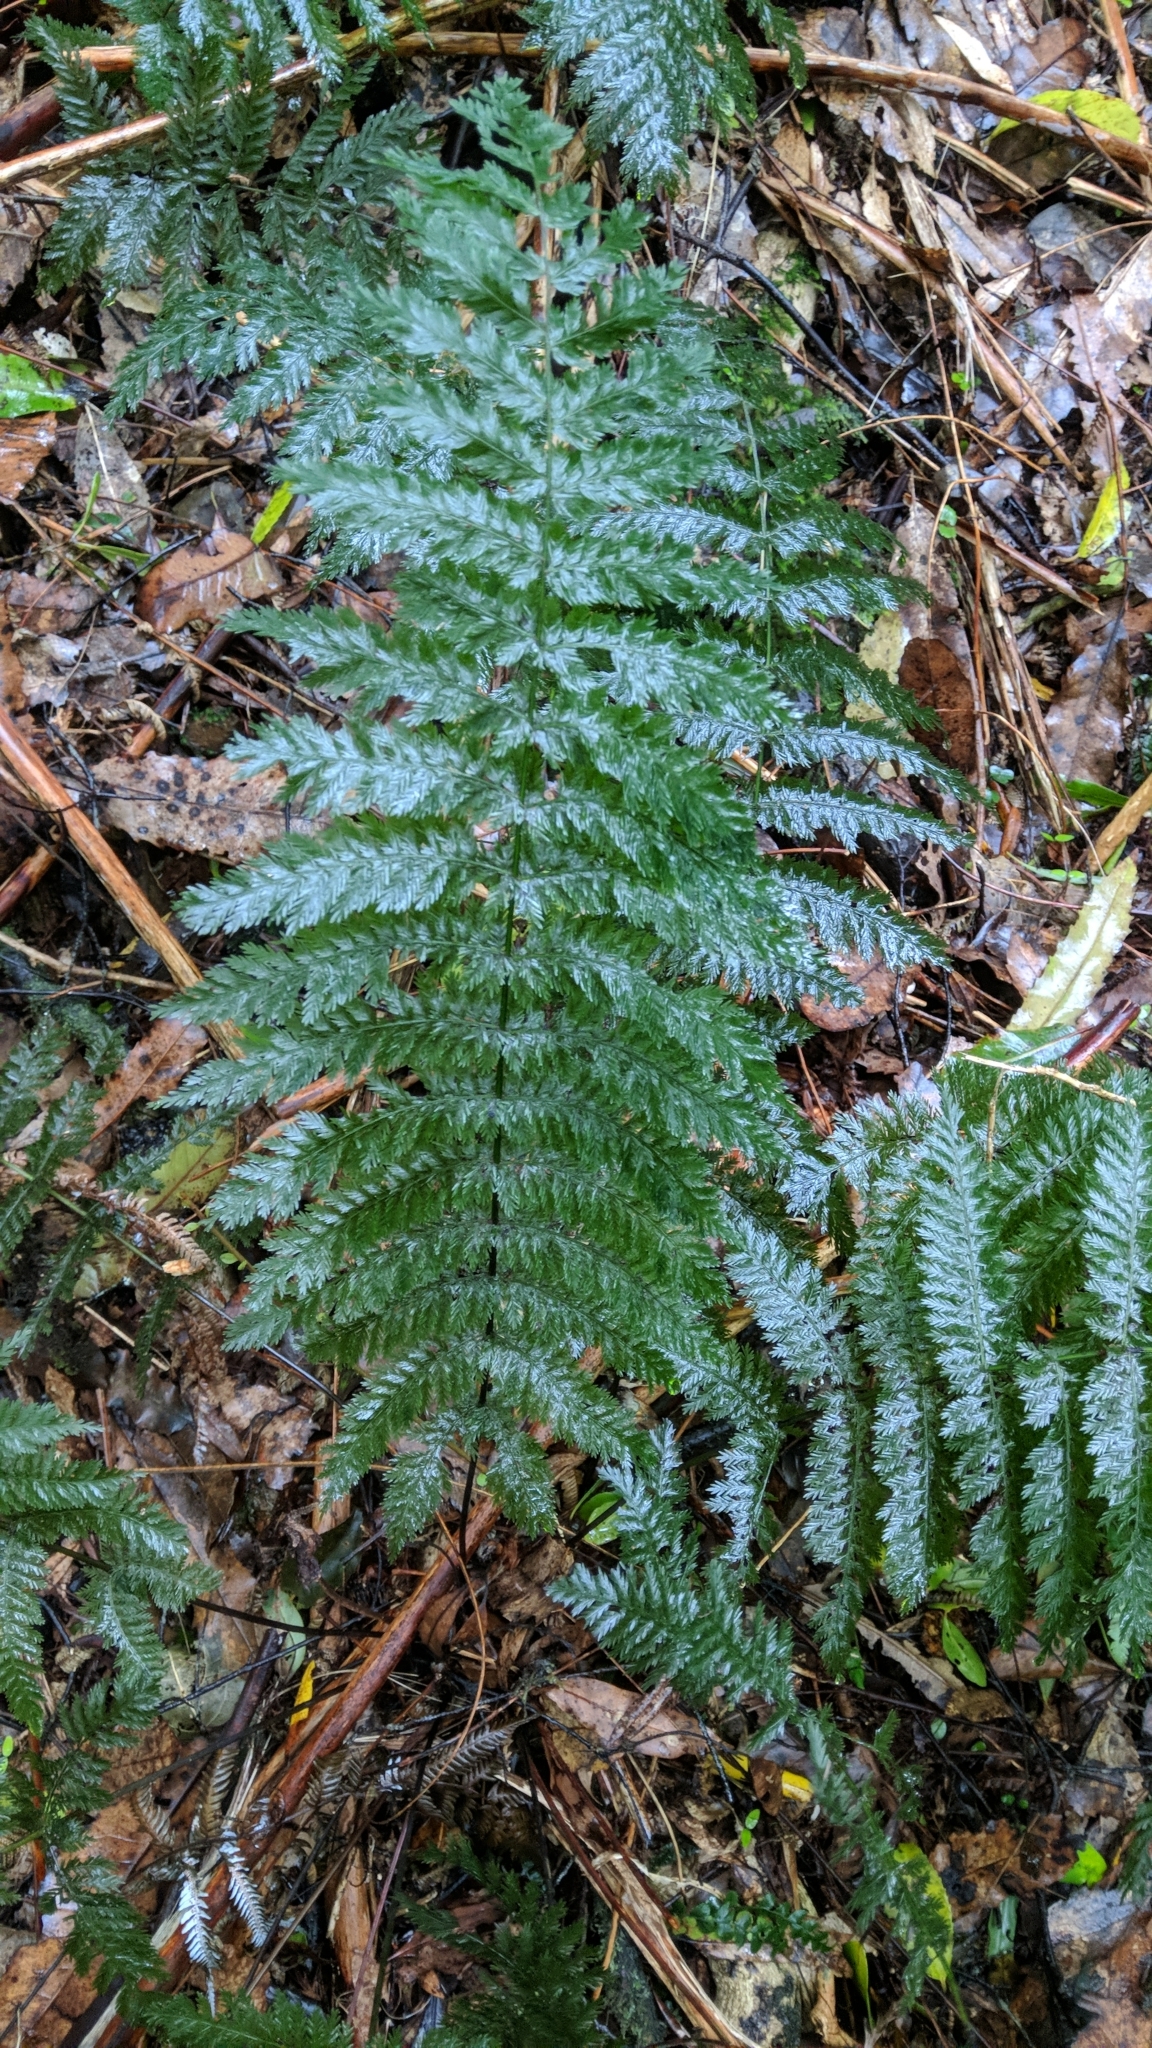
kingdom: Plantae
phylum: Tracheophyta
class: Polypodiopsida
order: Osmundales
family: Osmundaceae
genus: Leptopteris
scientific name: Leptopteris hymenophylloides
